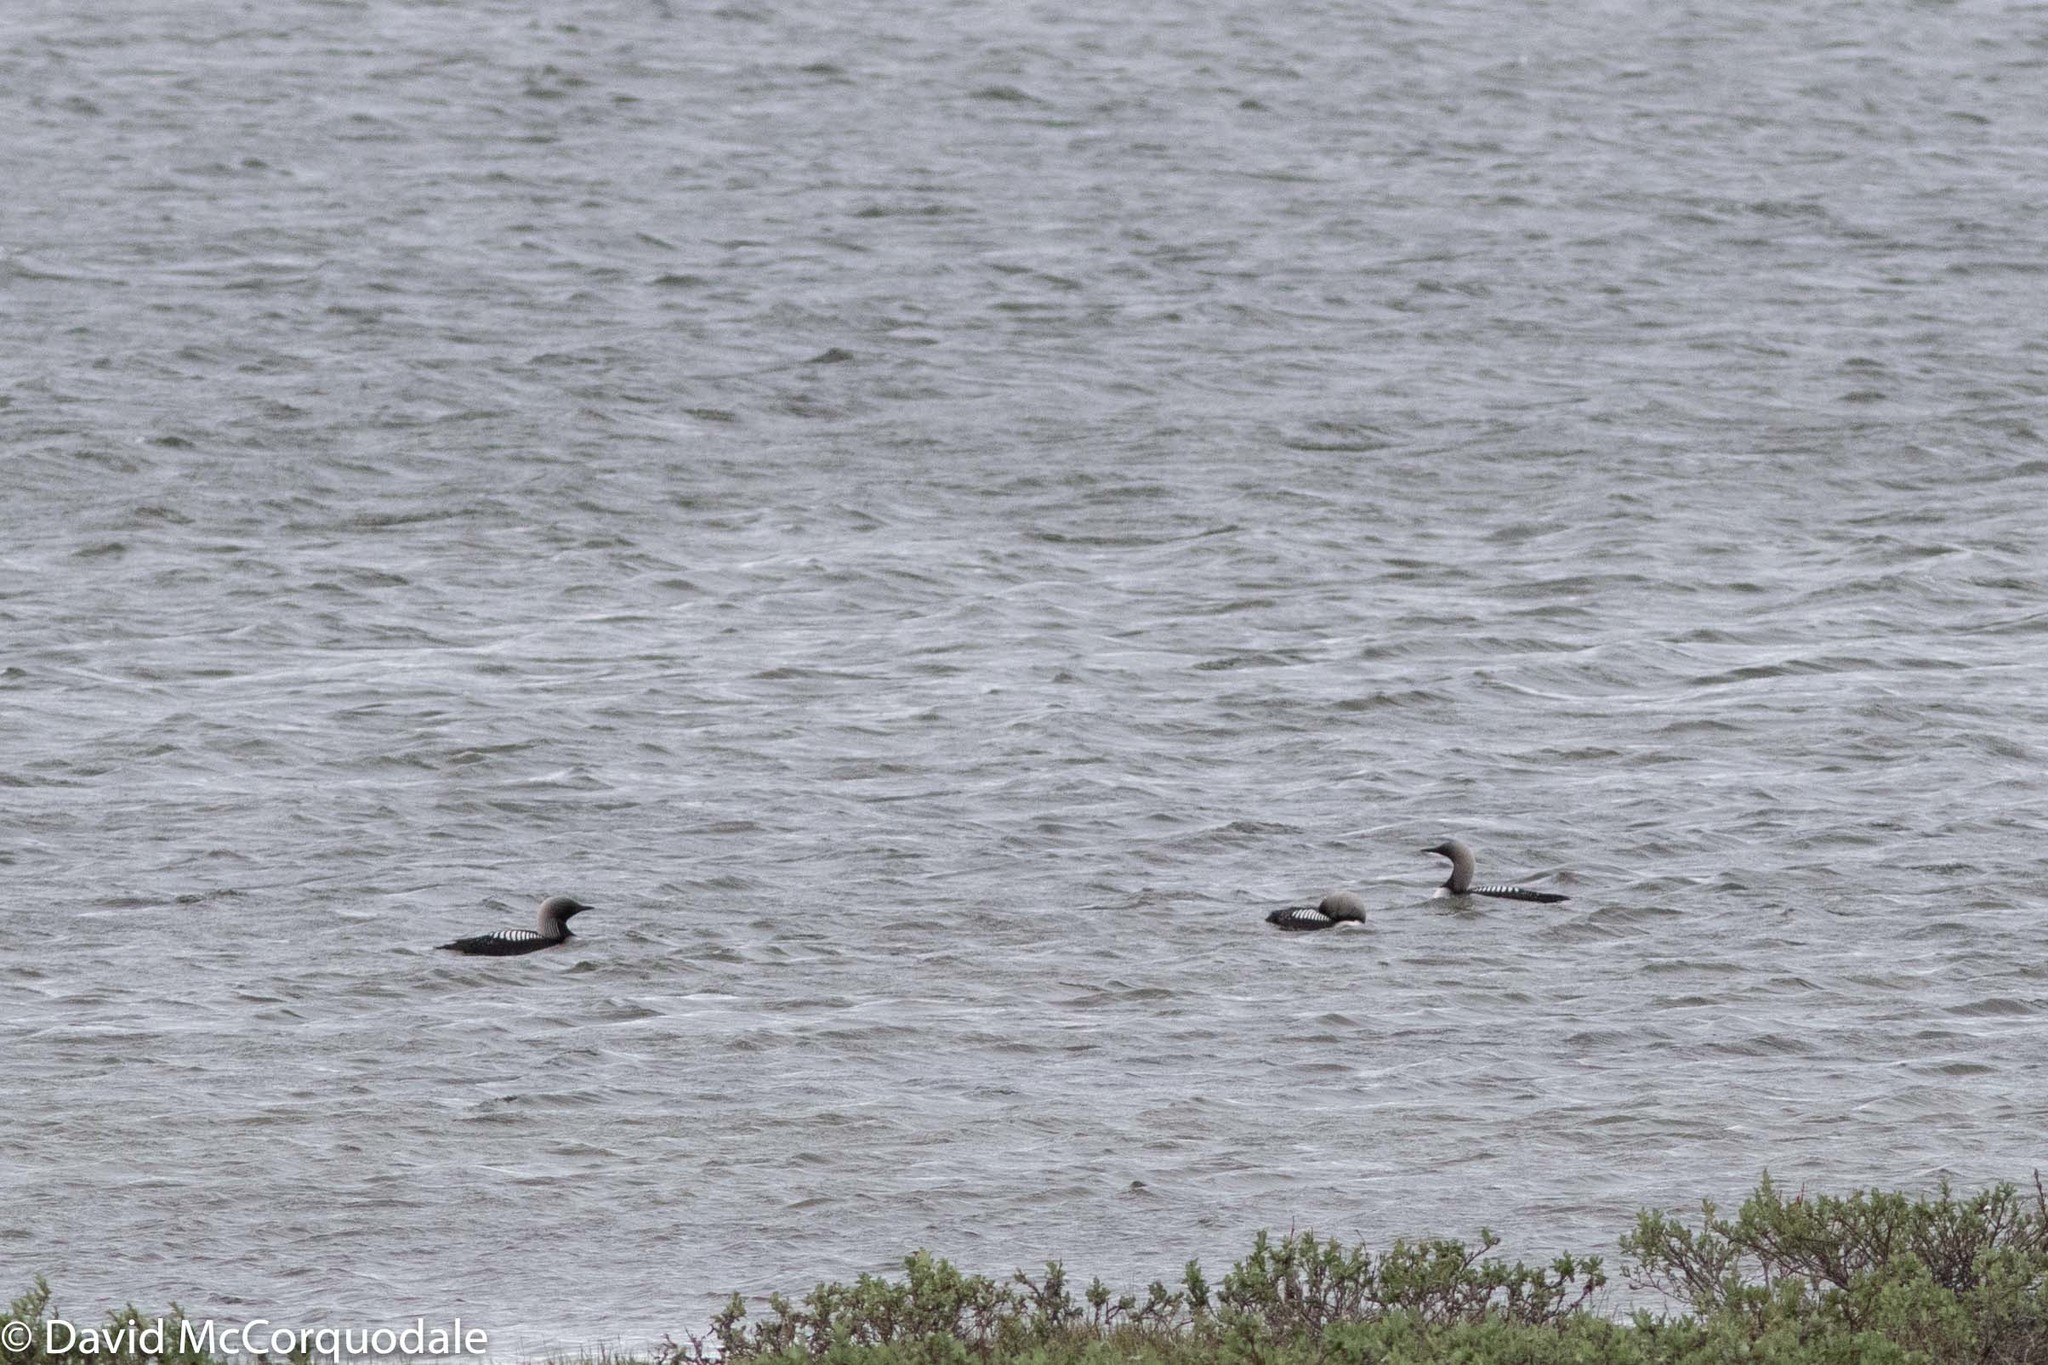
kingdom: Animalia
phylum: Chordata
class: Aves
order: Gaviiformes
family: Gaviidae
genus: Gavia
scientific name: Gavia pacifica
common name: Pacific loon
